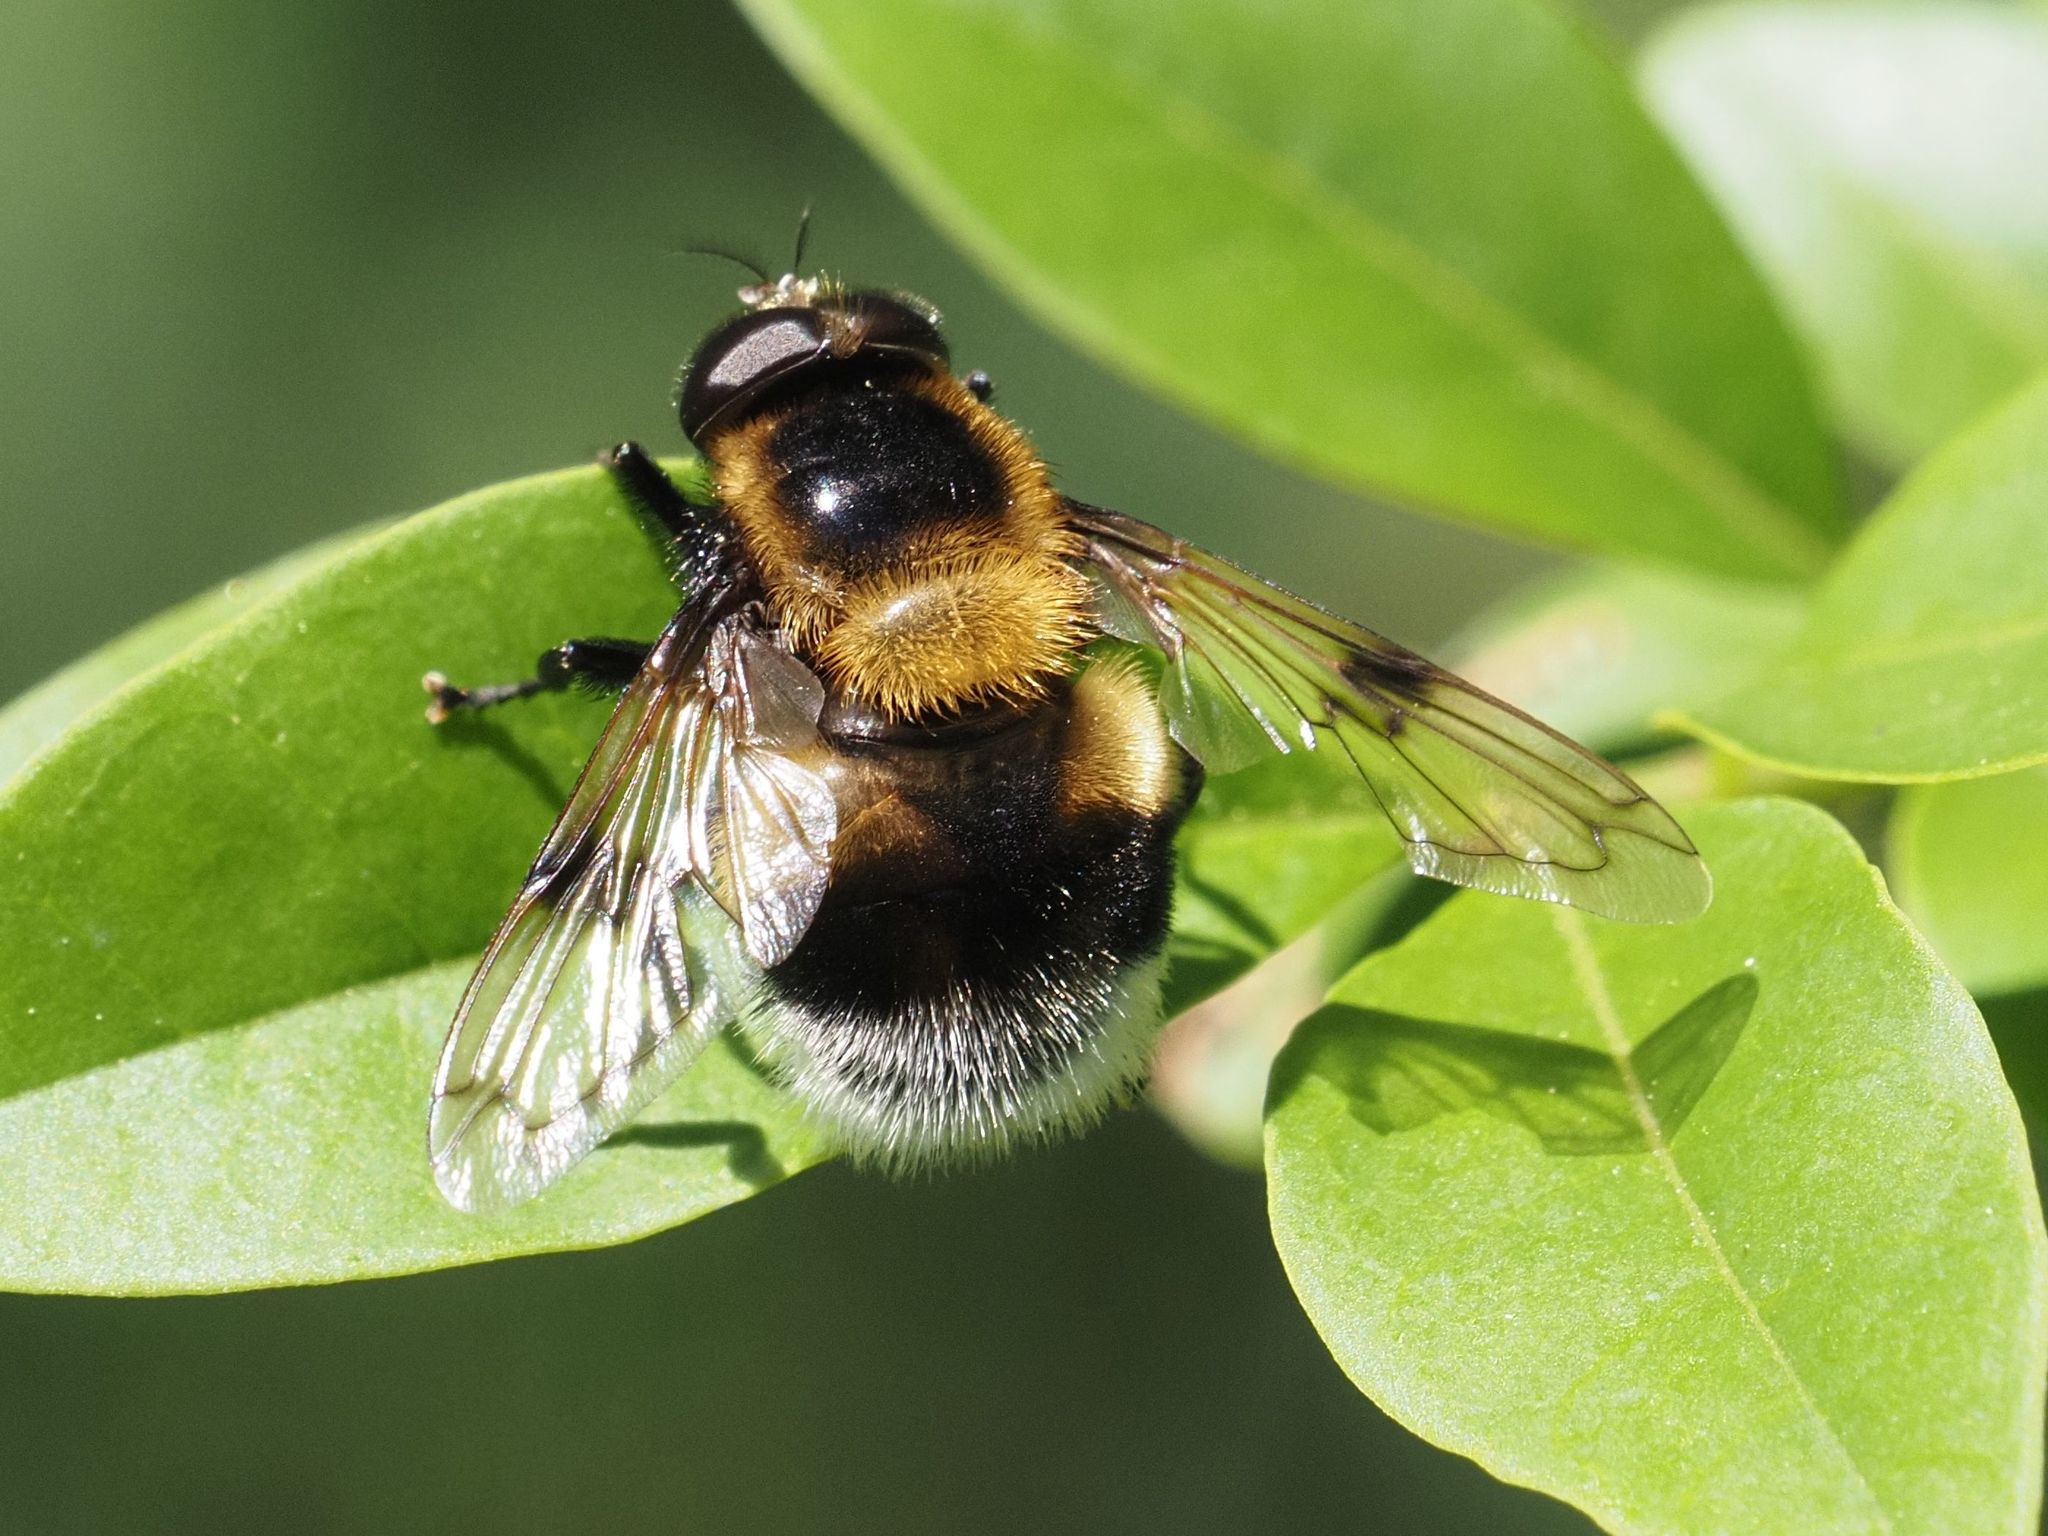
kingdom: Animalia
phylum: Arthropoda
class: Insecta
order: Diptera
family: Syrphidae
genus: Volucella
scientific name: Volucella bombylans
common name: Bumble bee hover fly
